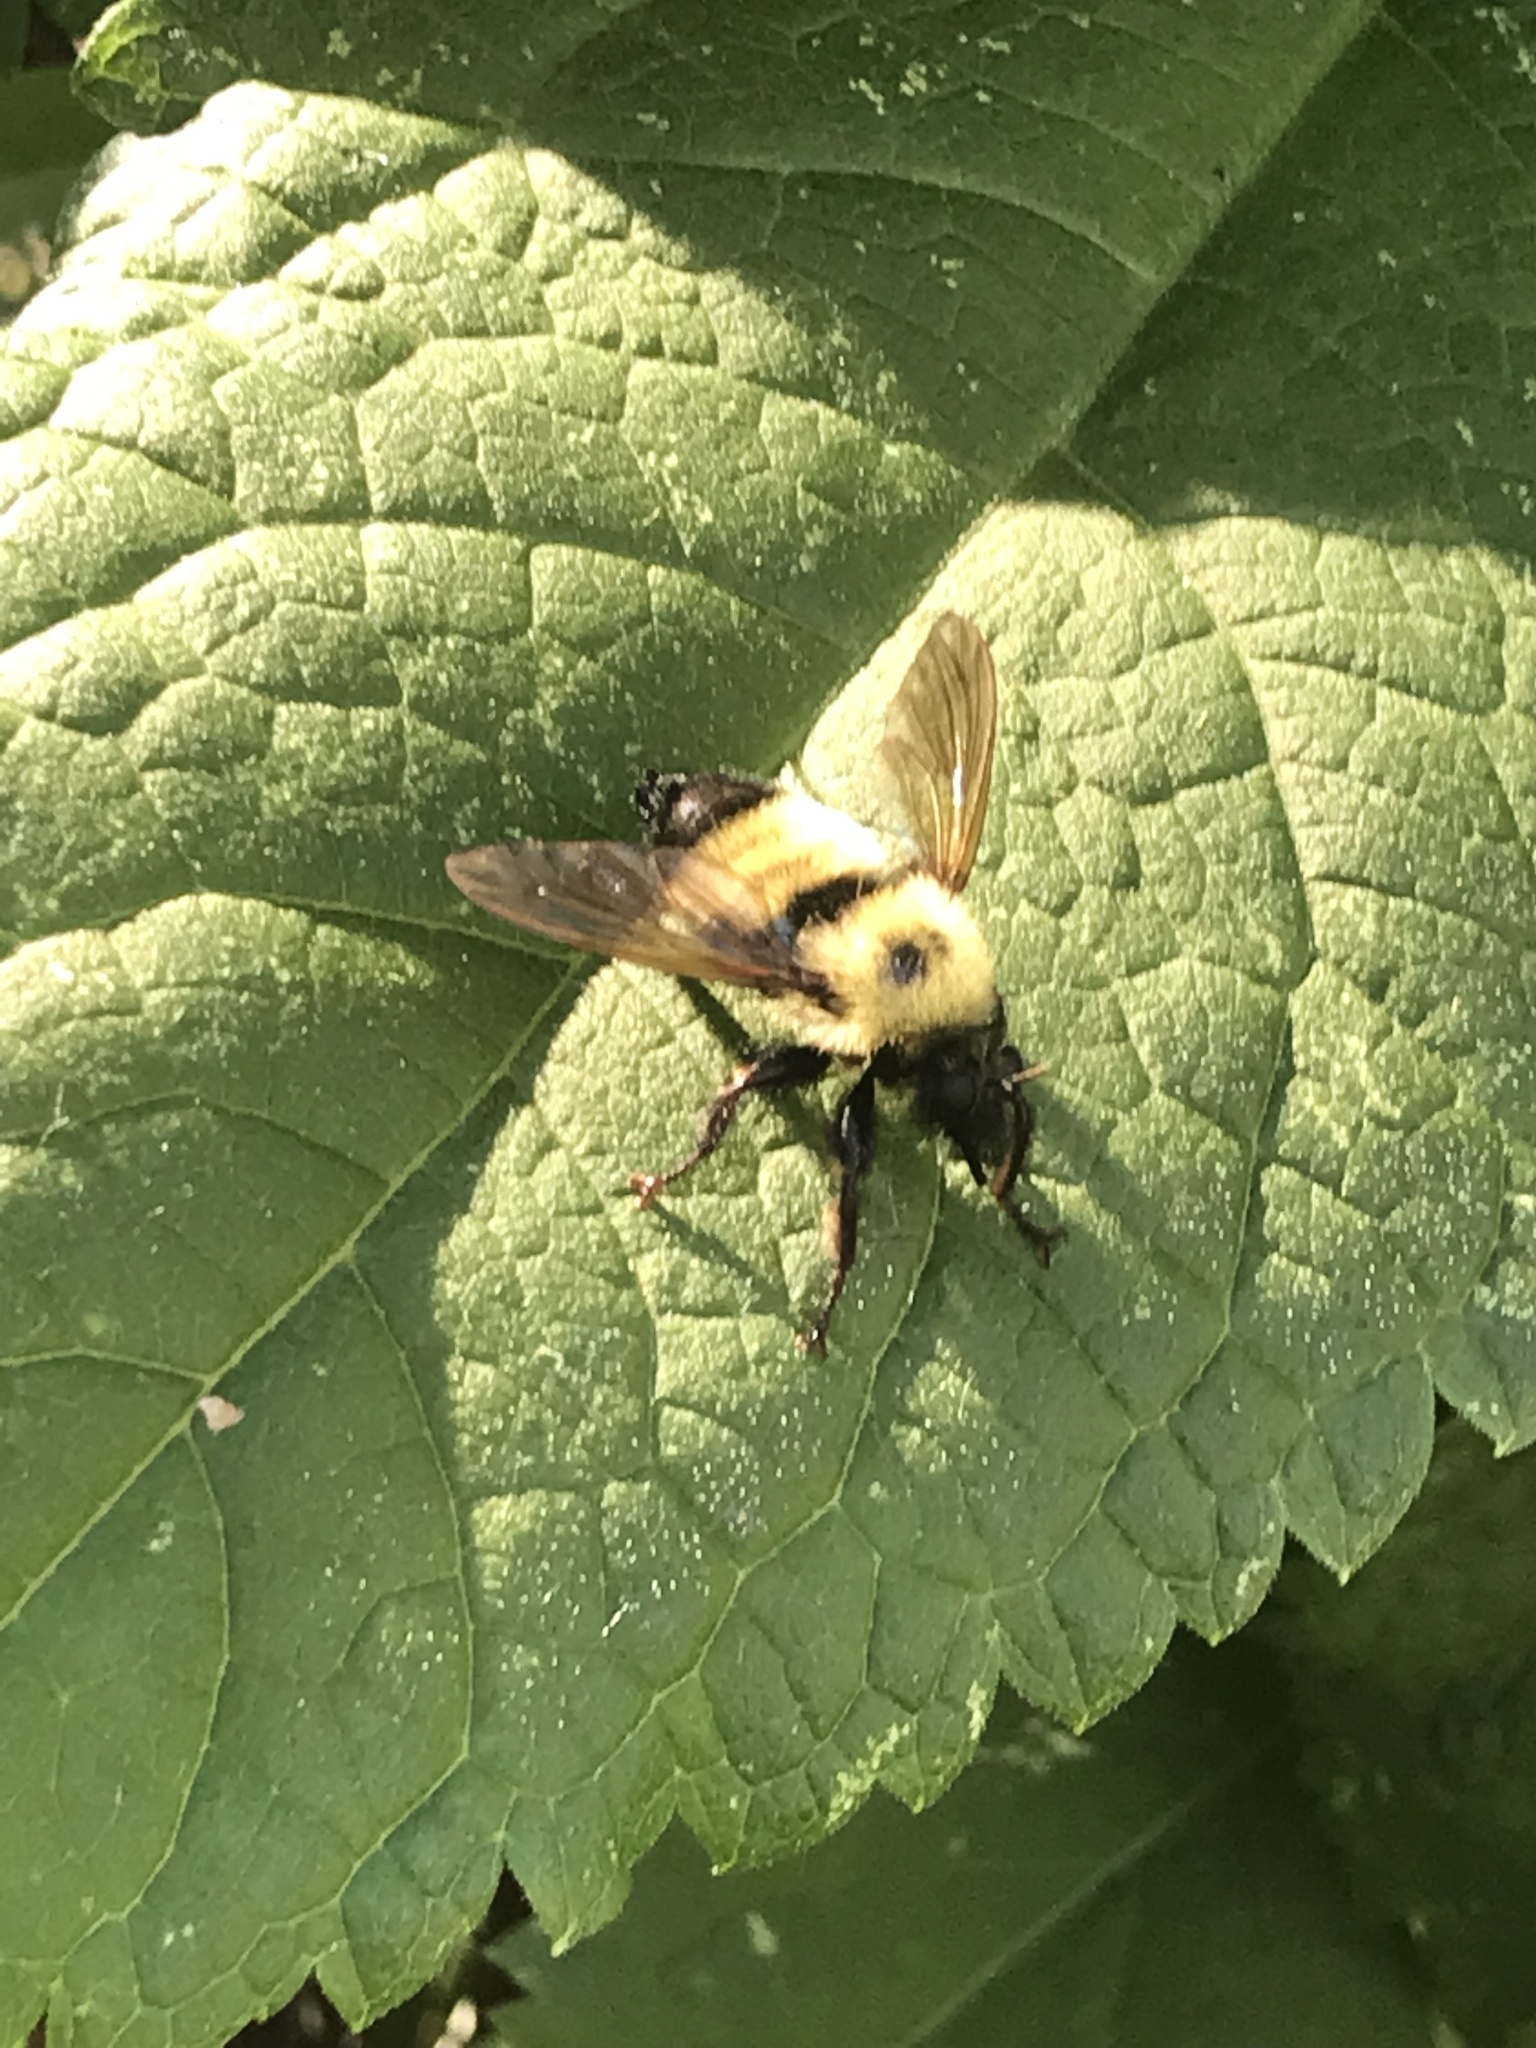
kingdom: Animalia
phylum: Arthropoda
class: Insecta
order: Diptera
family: Asilidae
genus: Laphria
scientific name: Laphria thoracica
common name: Bumble bee mimic robber fly
